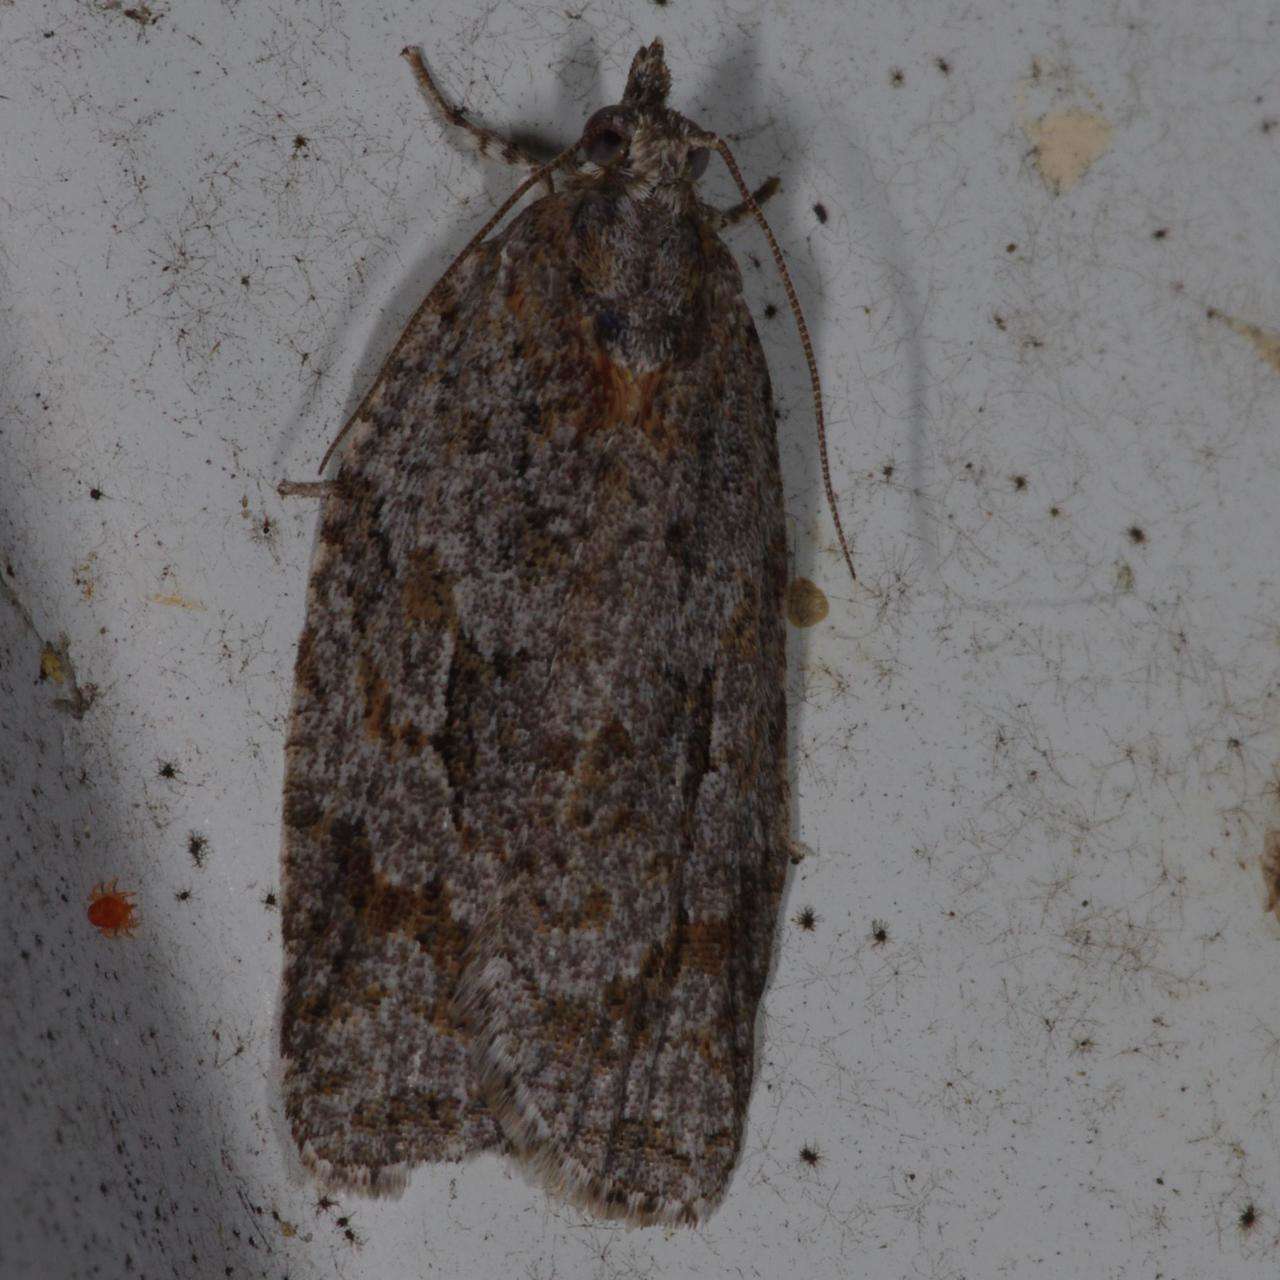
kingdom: Animalia
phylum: Arthropoda
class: Insecta
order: Lepidoptera
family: Tortricidae
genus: Acropolitis
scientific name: Acropolitis canana
